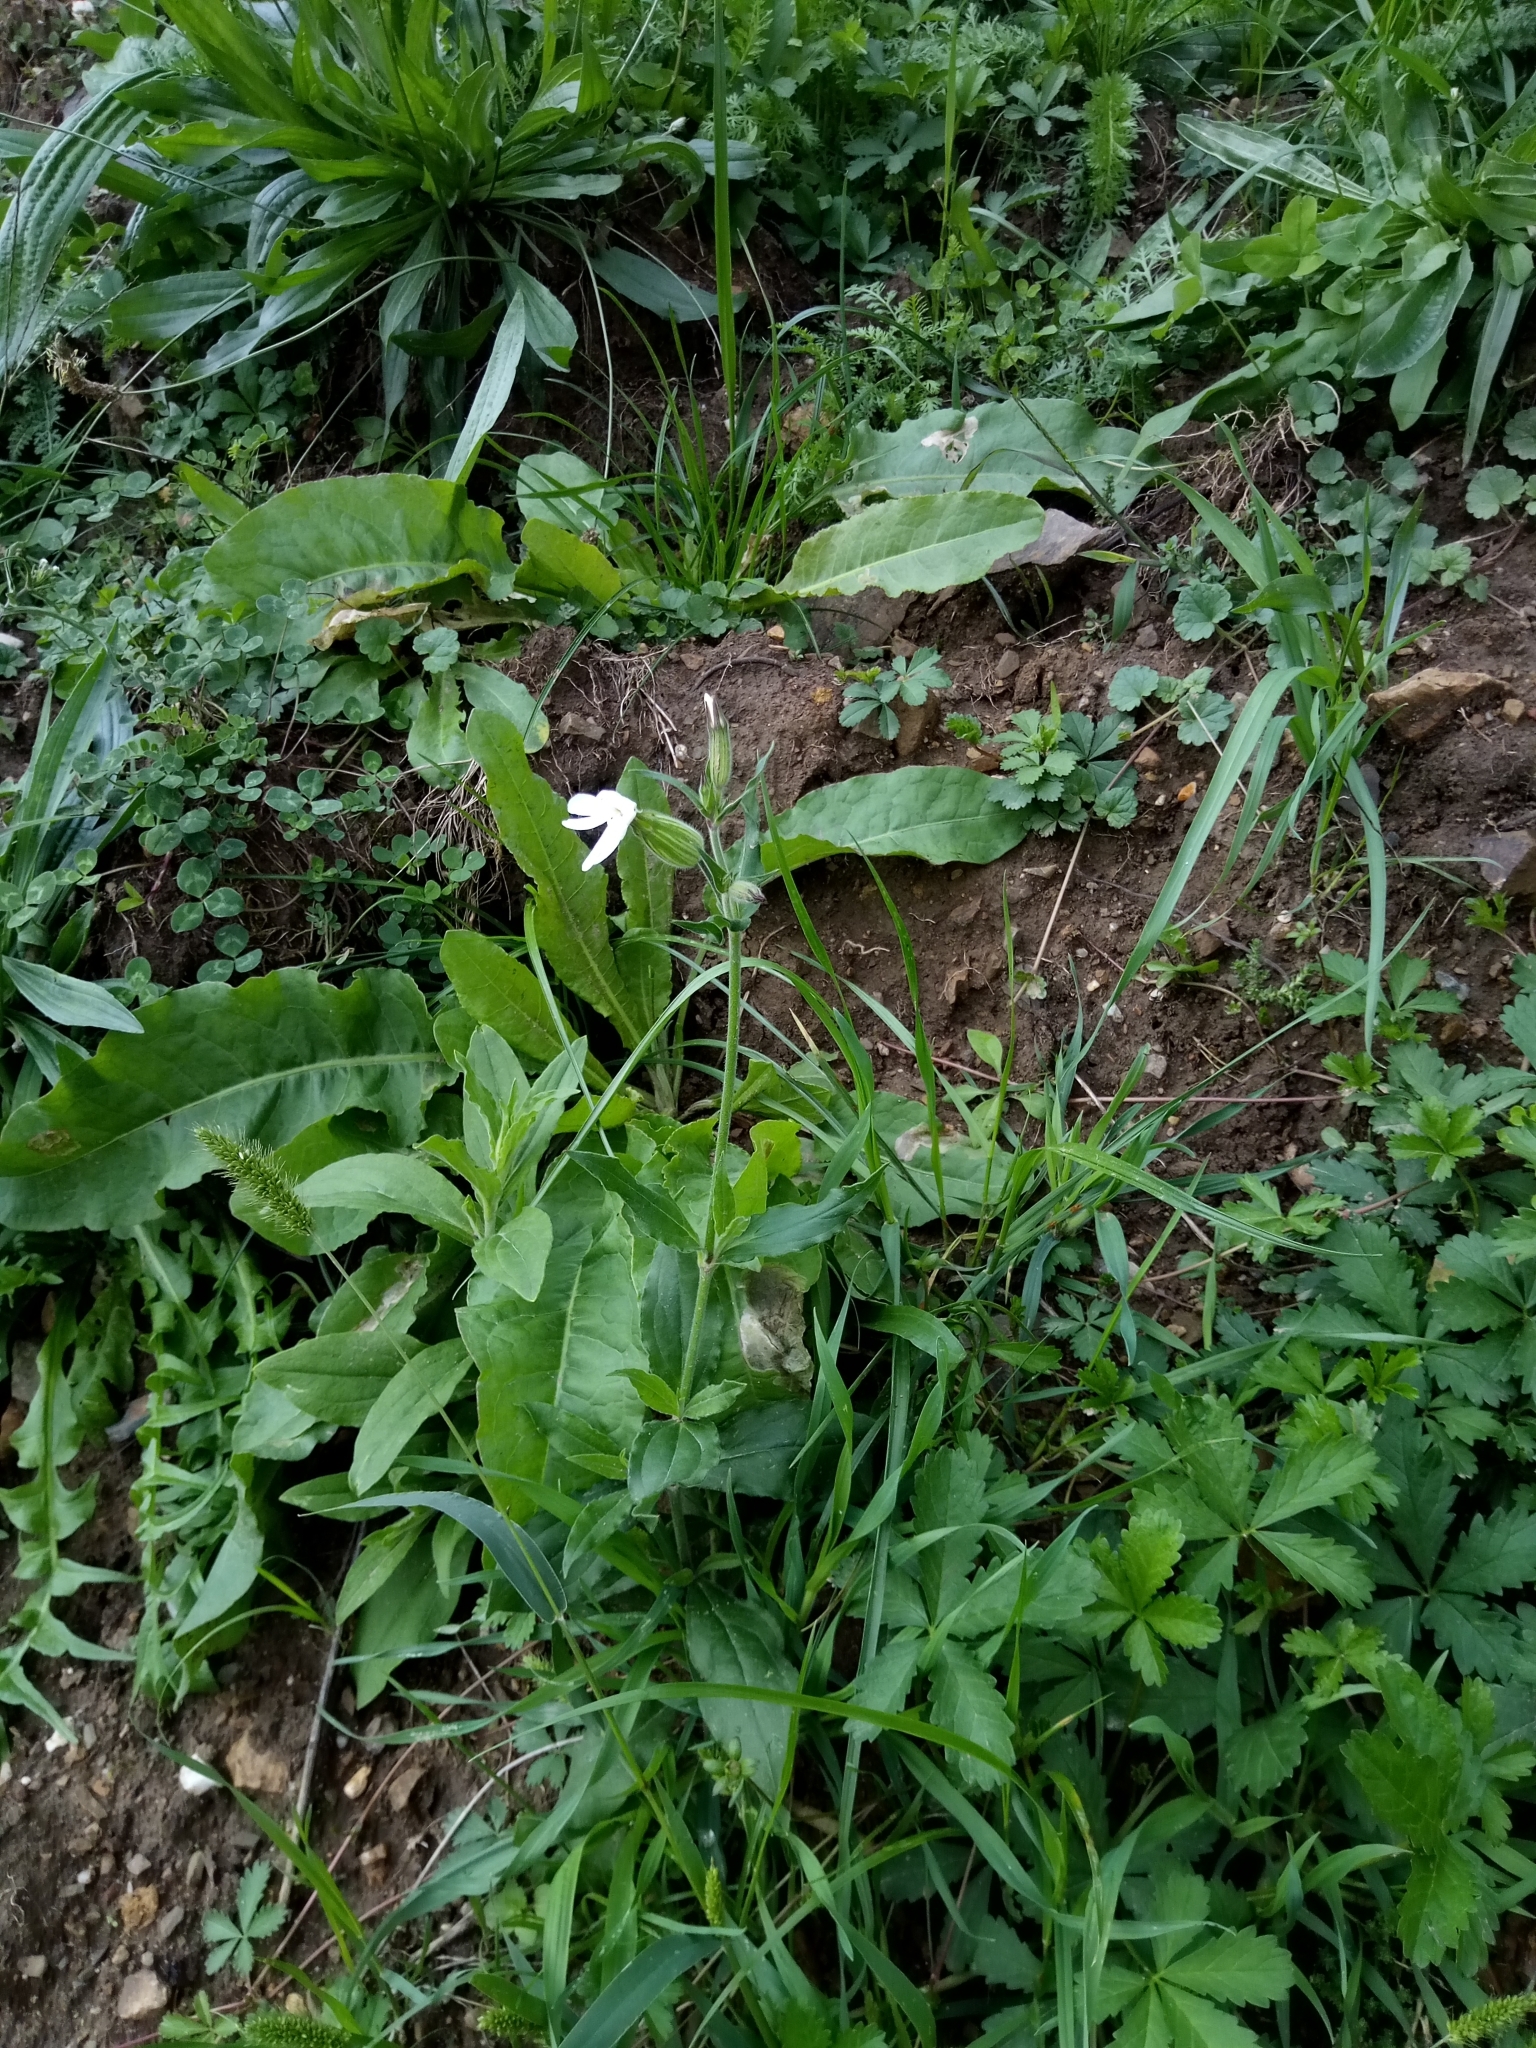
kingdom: Plantae
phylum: Tracheophyta
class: Magnoliopsida
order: Caryophyllales
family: Caryophyllaceae
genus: Silene
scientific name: Silene latifolia
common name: White campion
